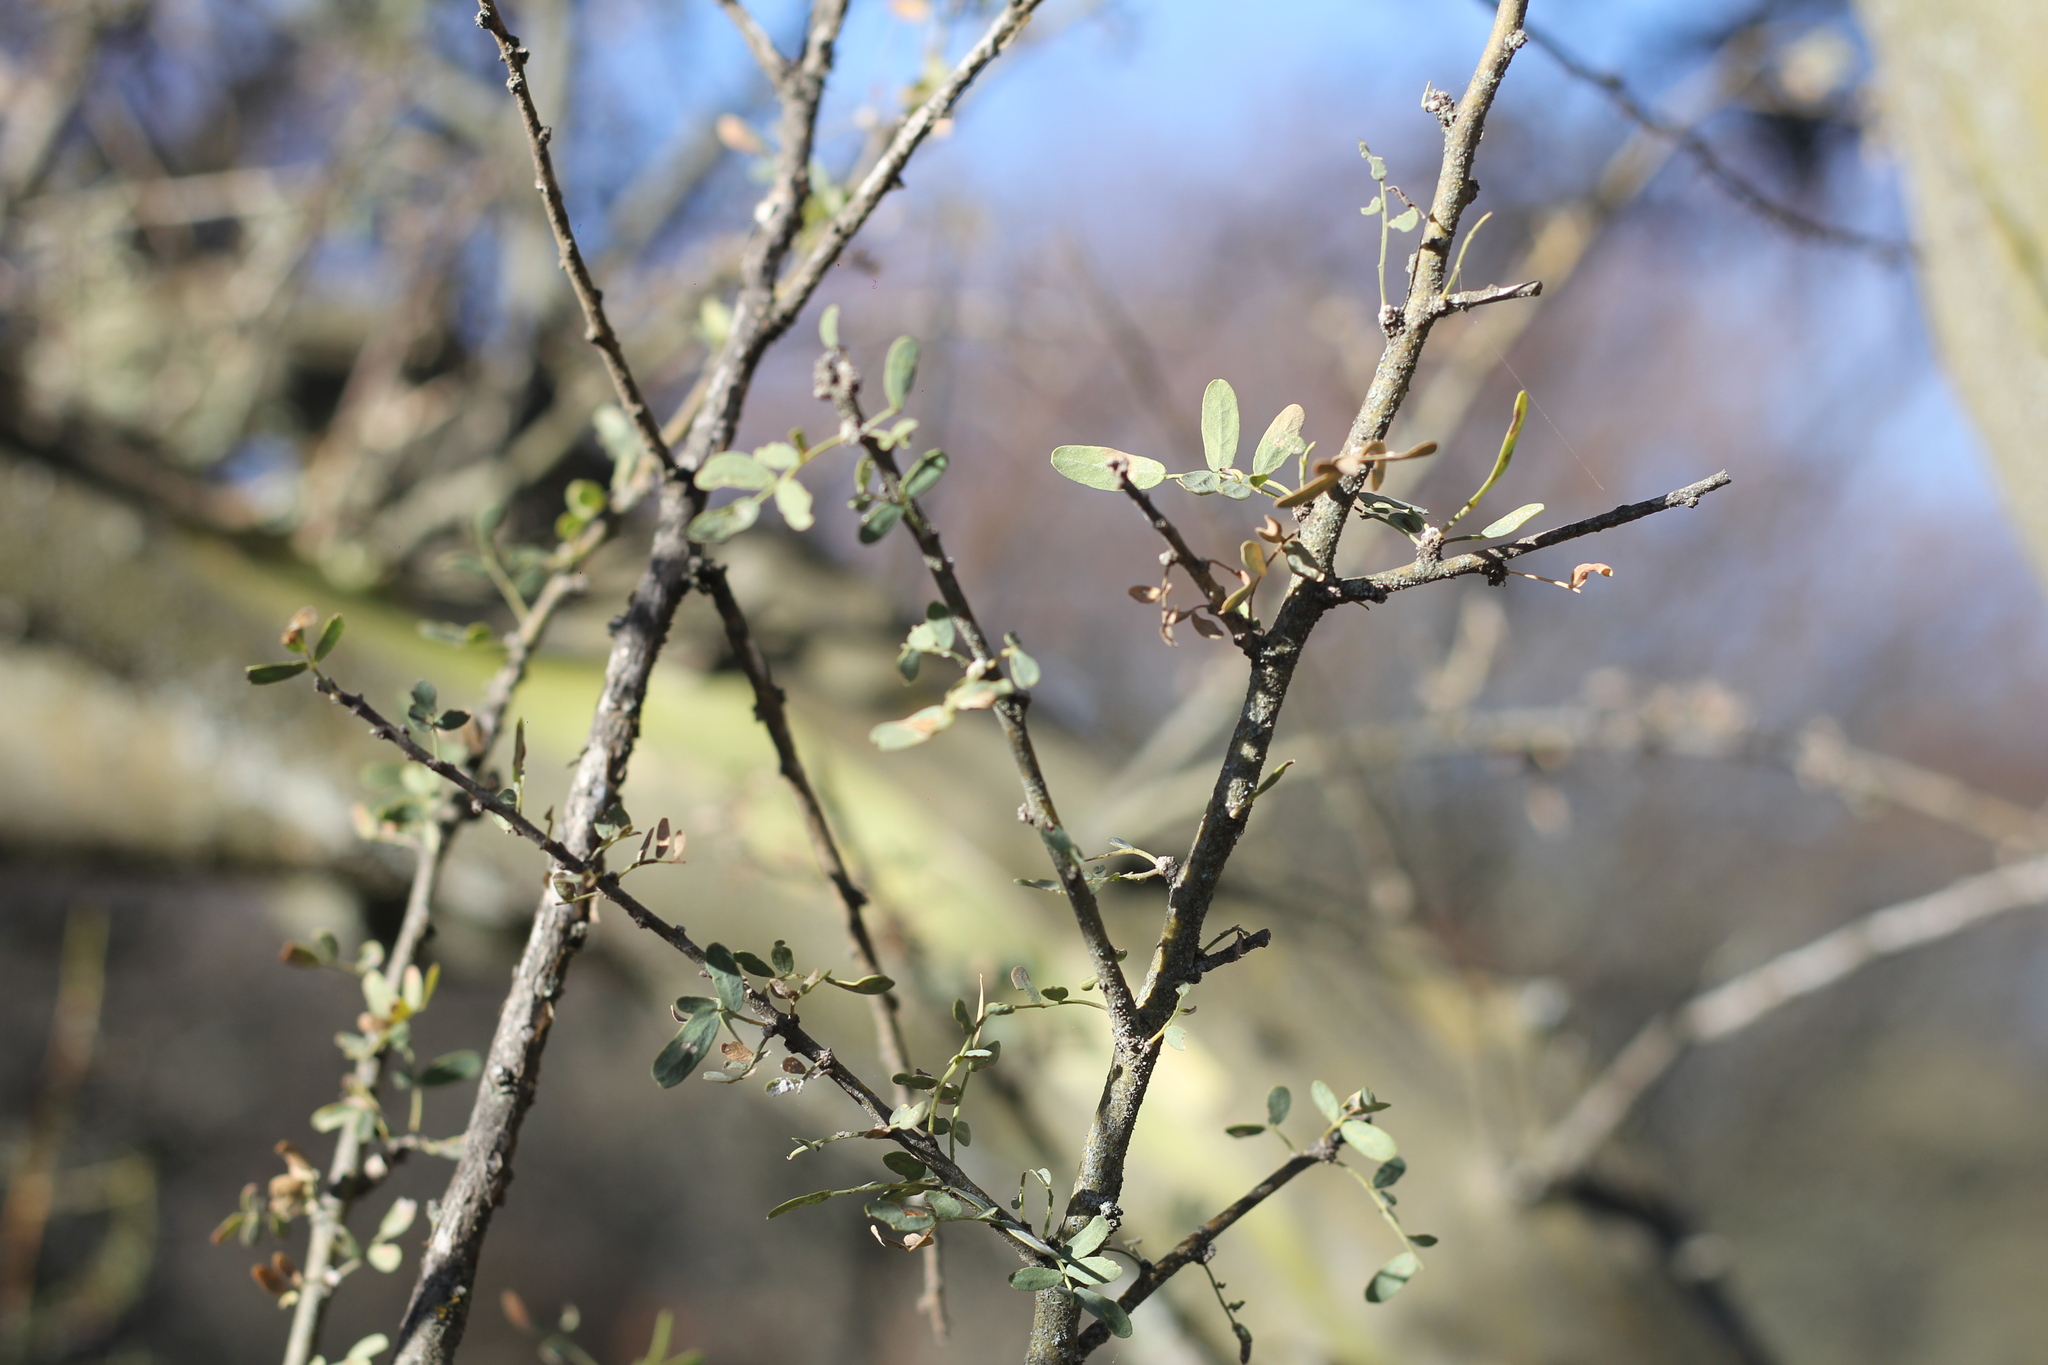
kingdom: Plantae
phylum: Tracheophyta
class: Magnoliopsida
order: Fabales
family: Fabaceae
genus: Geoffroea
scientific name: Geoffroea decorticans
